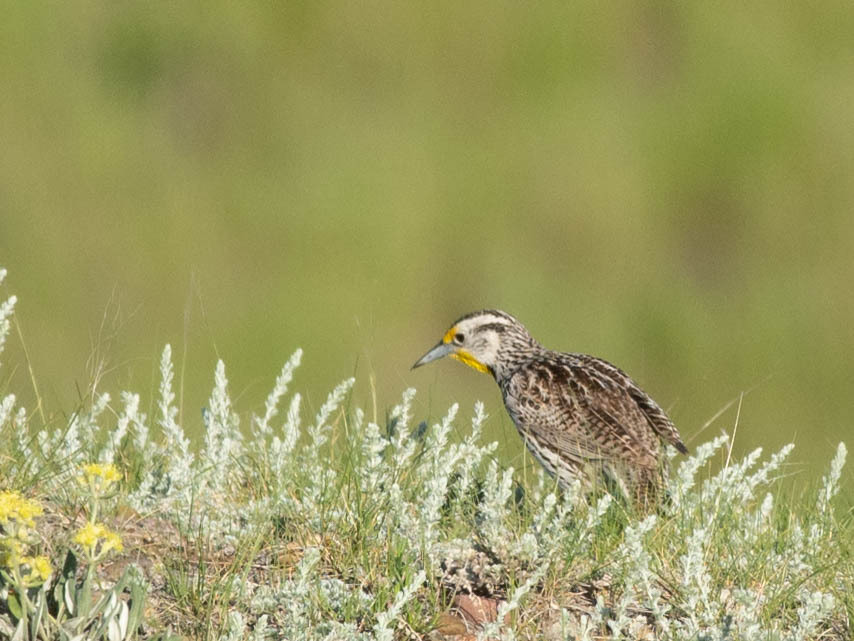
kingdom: Animalia
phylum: Chordata
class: Aves
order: Passeriformes
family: Icteridae
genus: Sturnella
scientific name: Sturnella neglecta
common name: Western meadowlark
